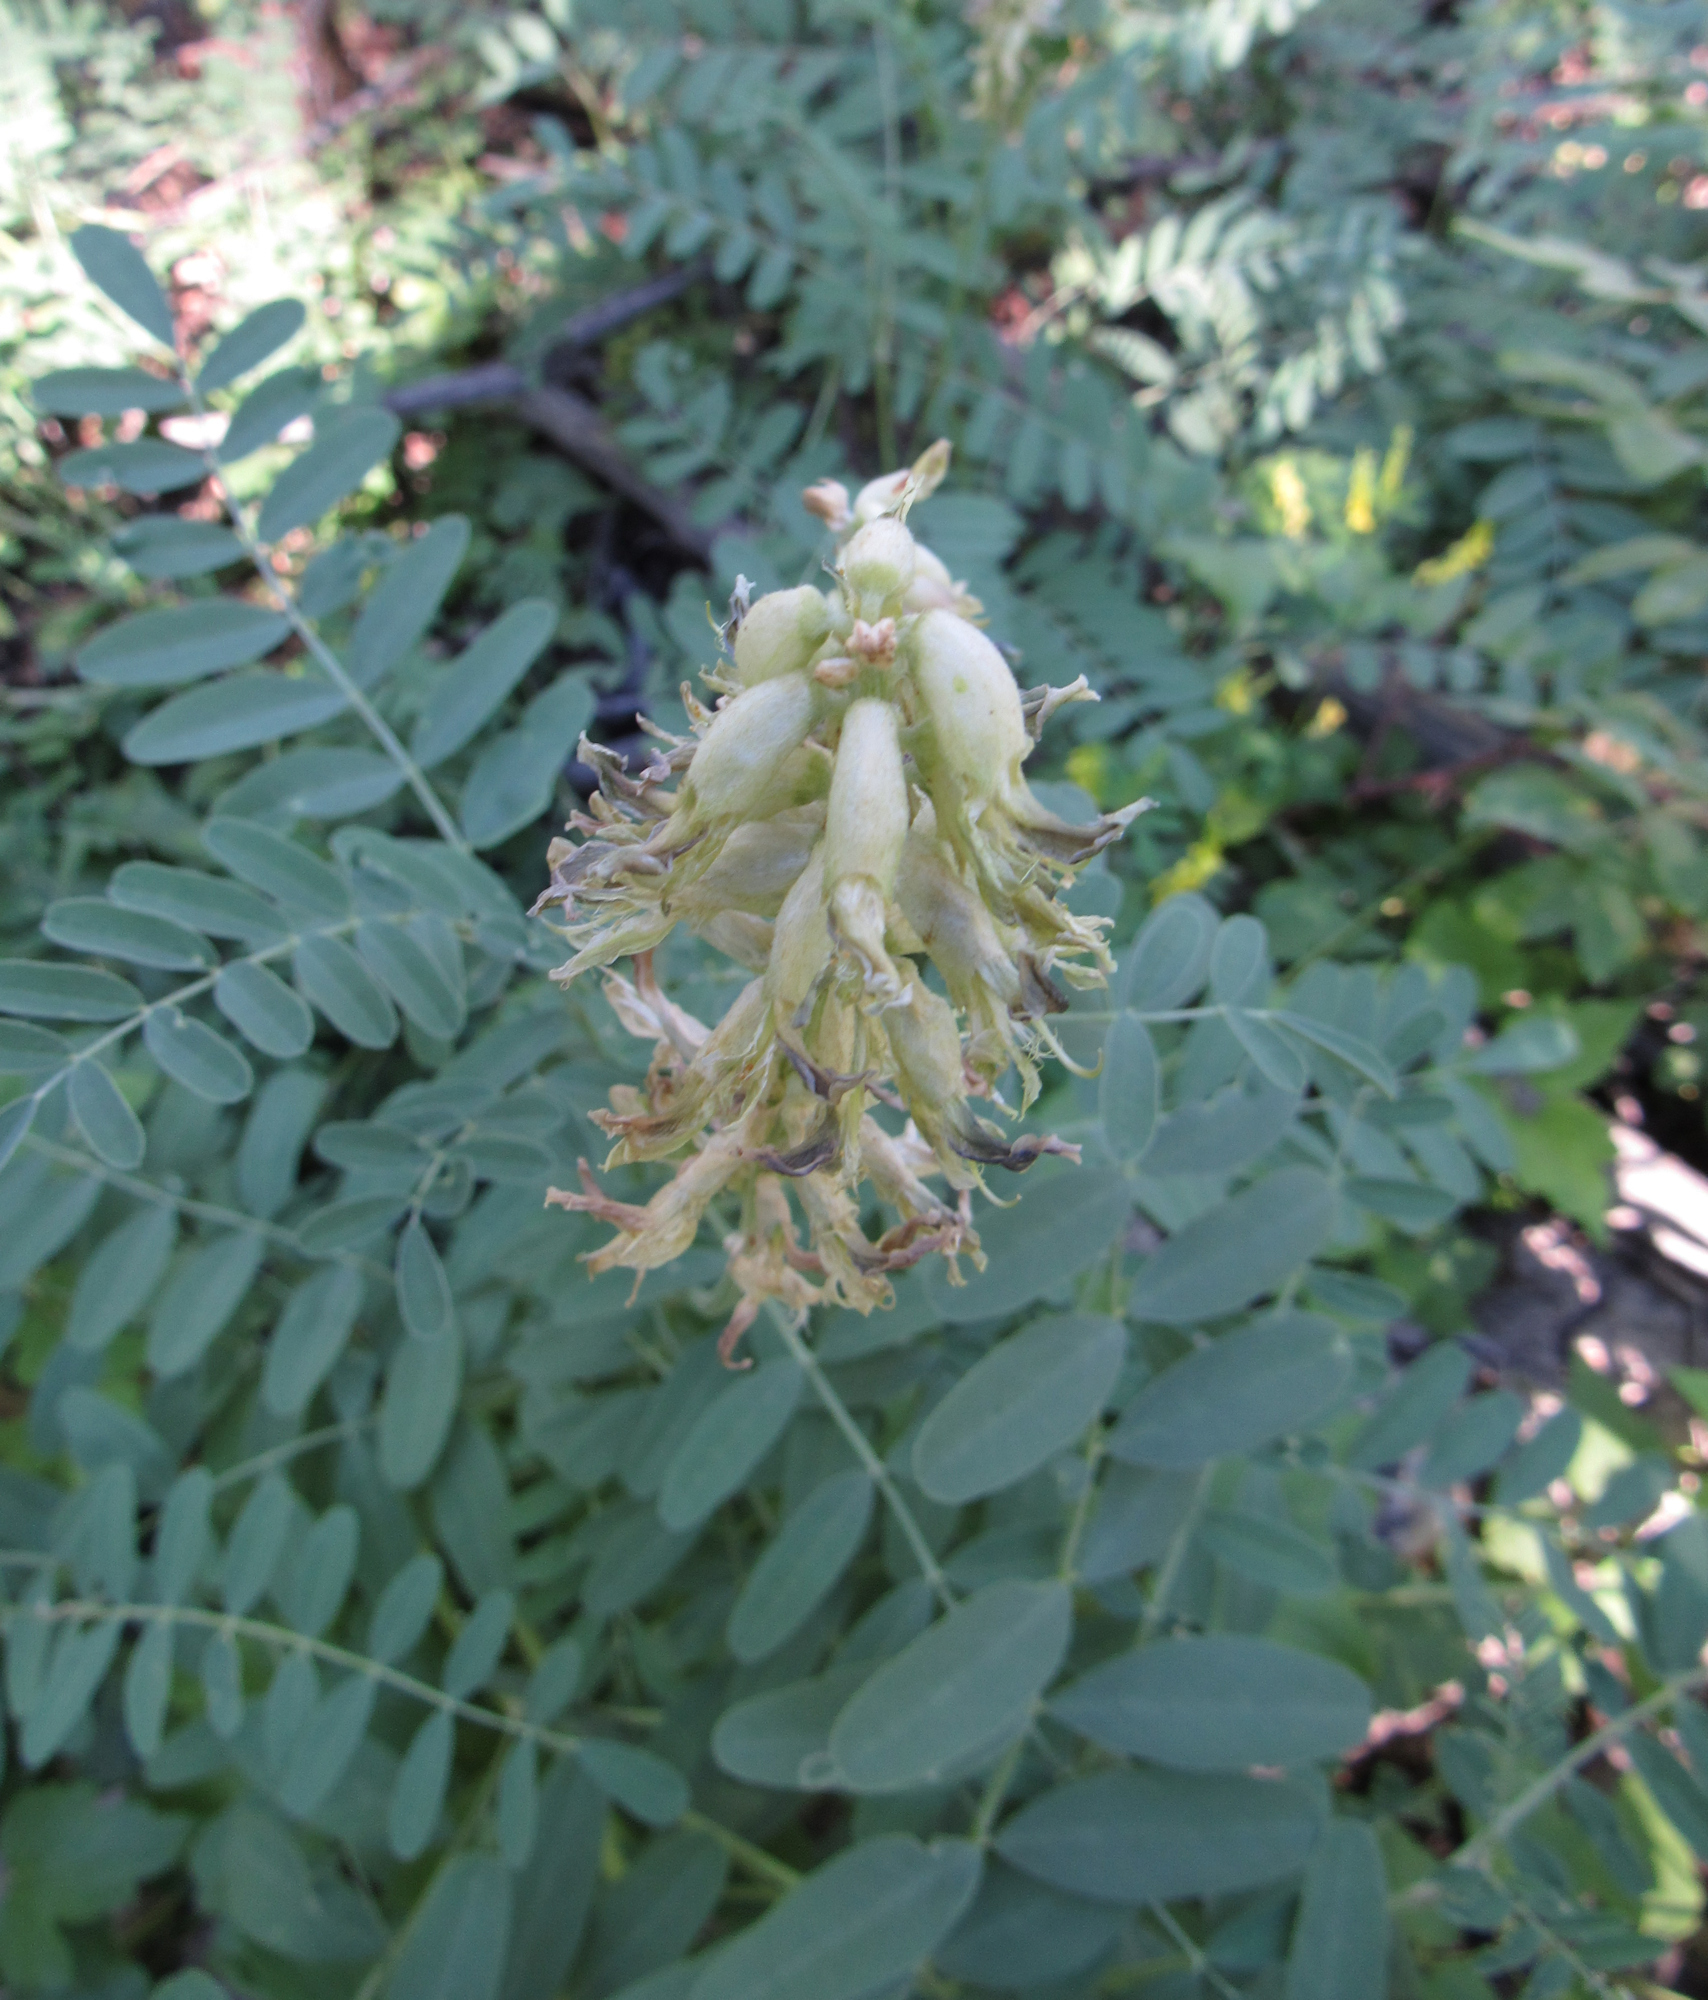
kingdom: Plantae
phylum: Tracheophyta
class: Magnoliopsida
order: Fabales
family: Fabaceae
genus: Astragalus
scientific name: Astragalus canadensis
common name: Canada milk-vetch
